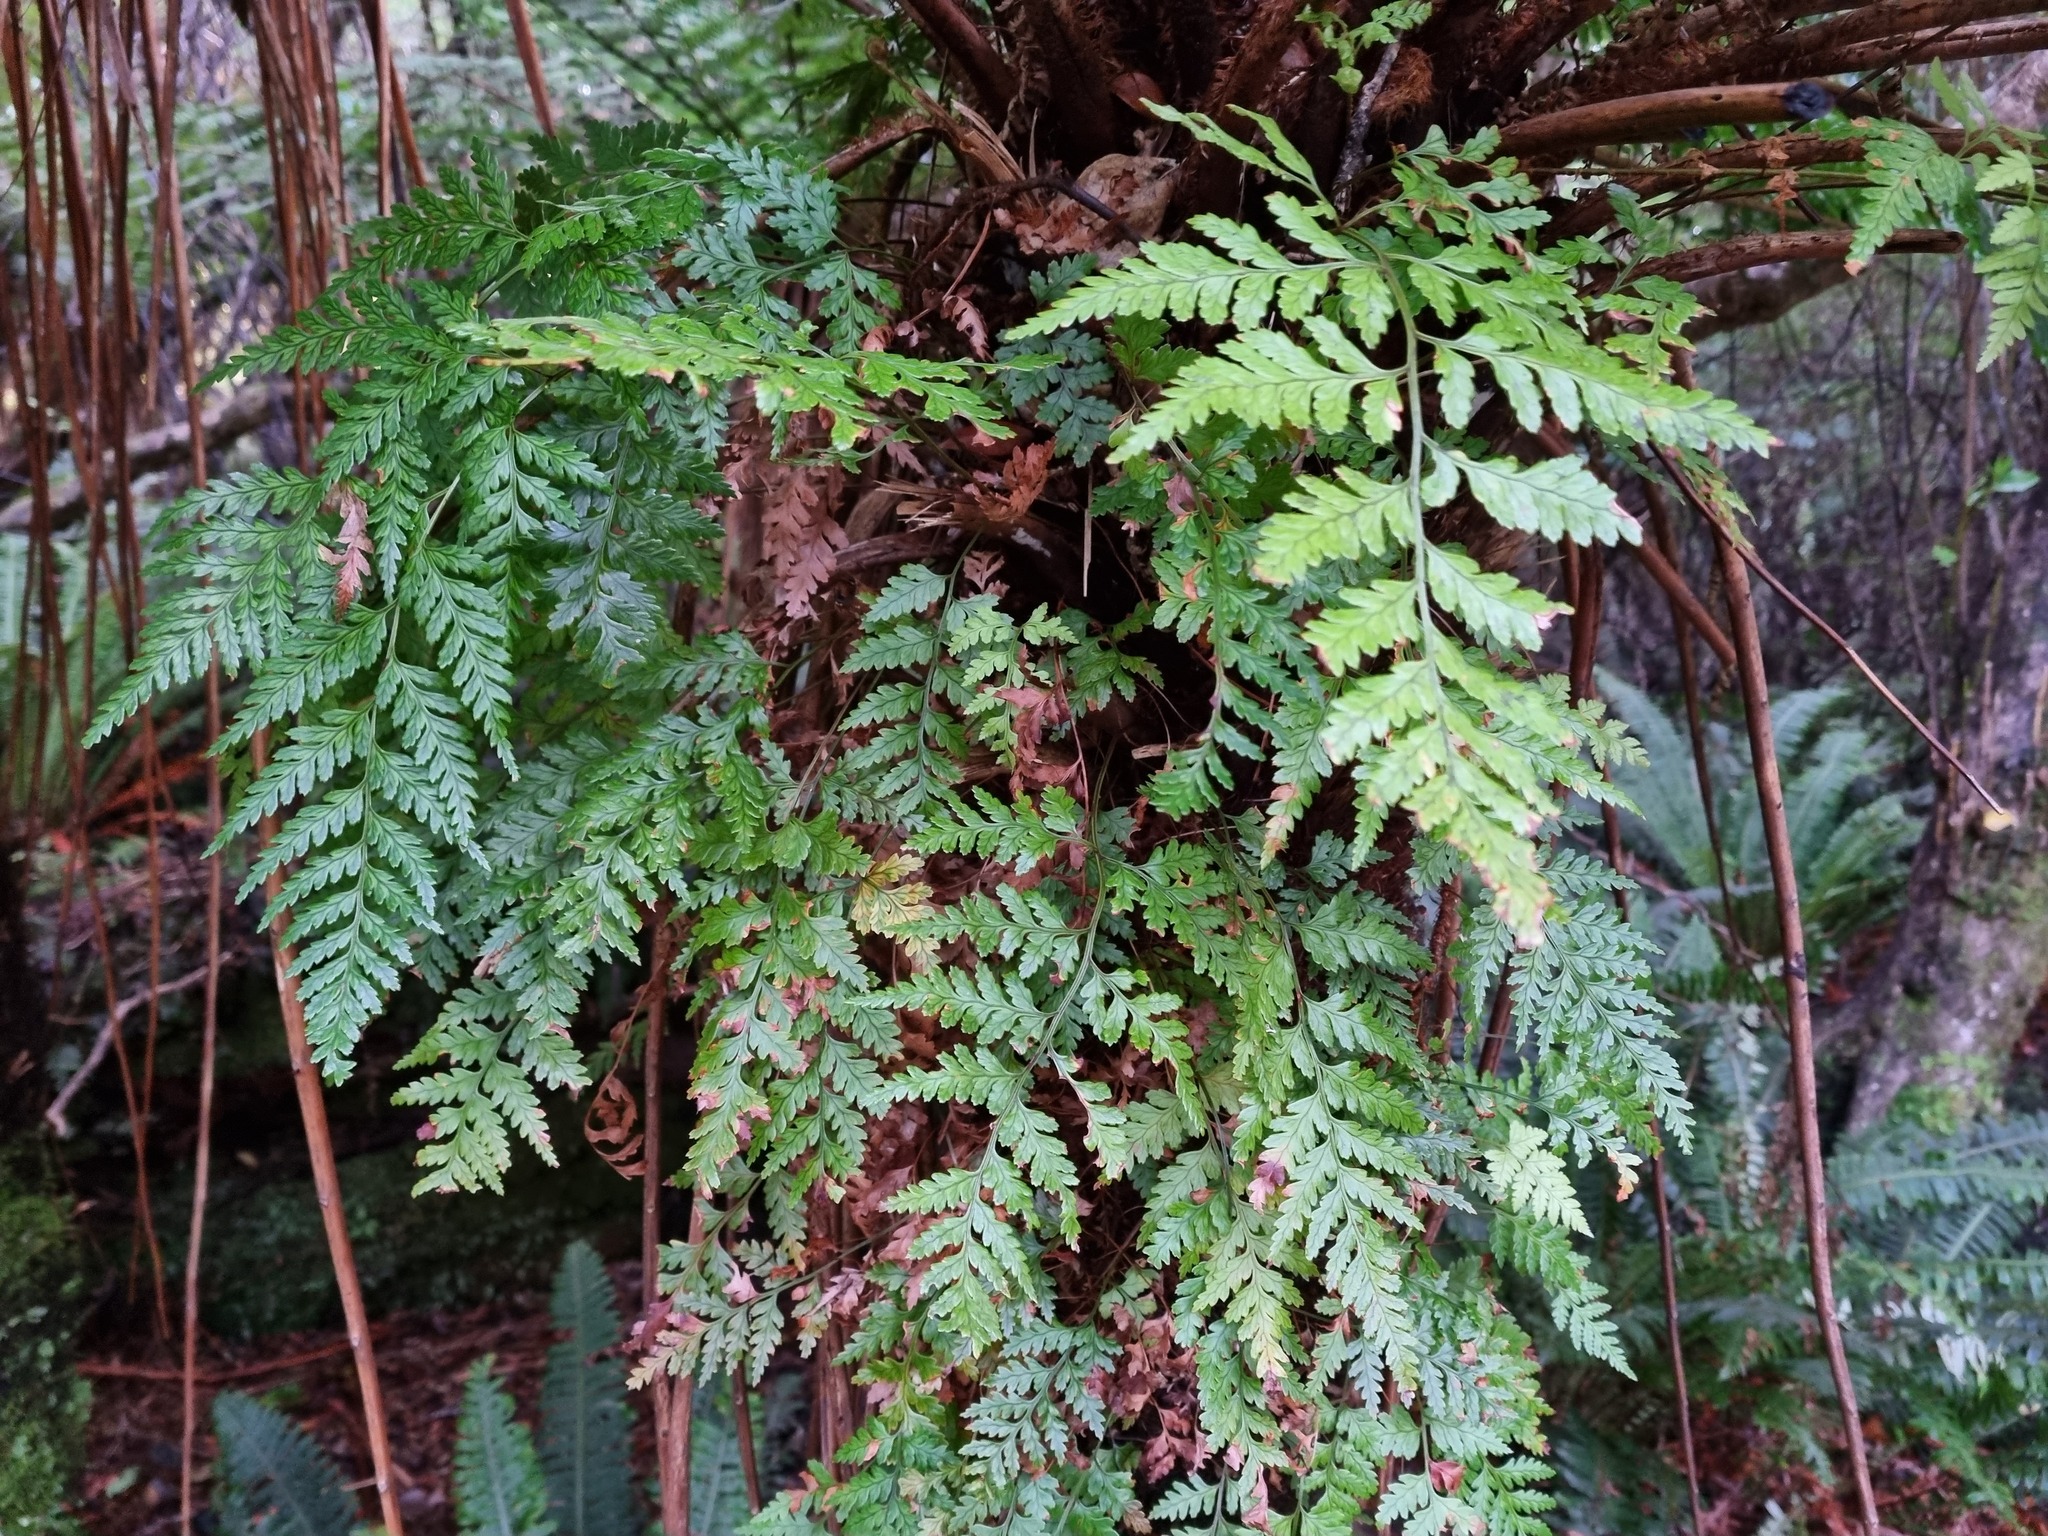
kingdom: Plantae
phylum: Tracheophyta
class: Polypodiopsida
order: Polypodiales
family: Dryopteridaceae
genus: Rumohra
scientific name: Rumohra adiantiformis
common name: Leather fern
